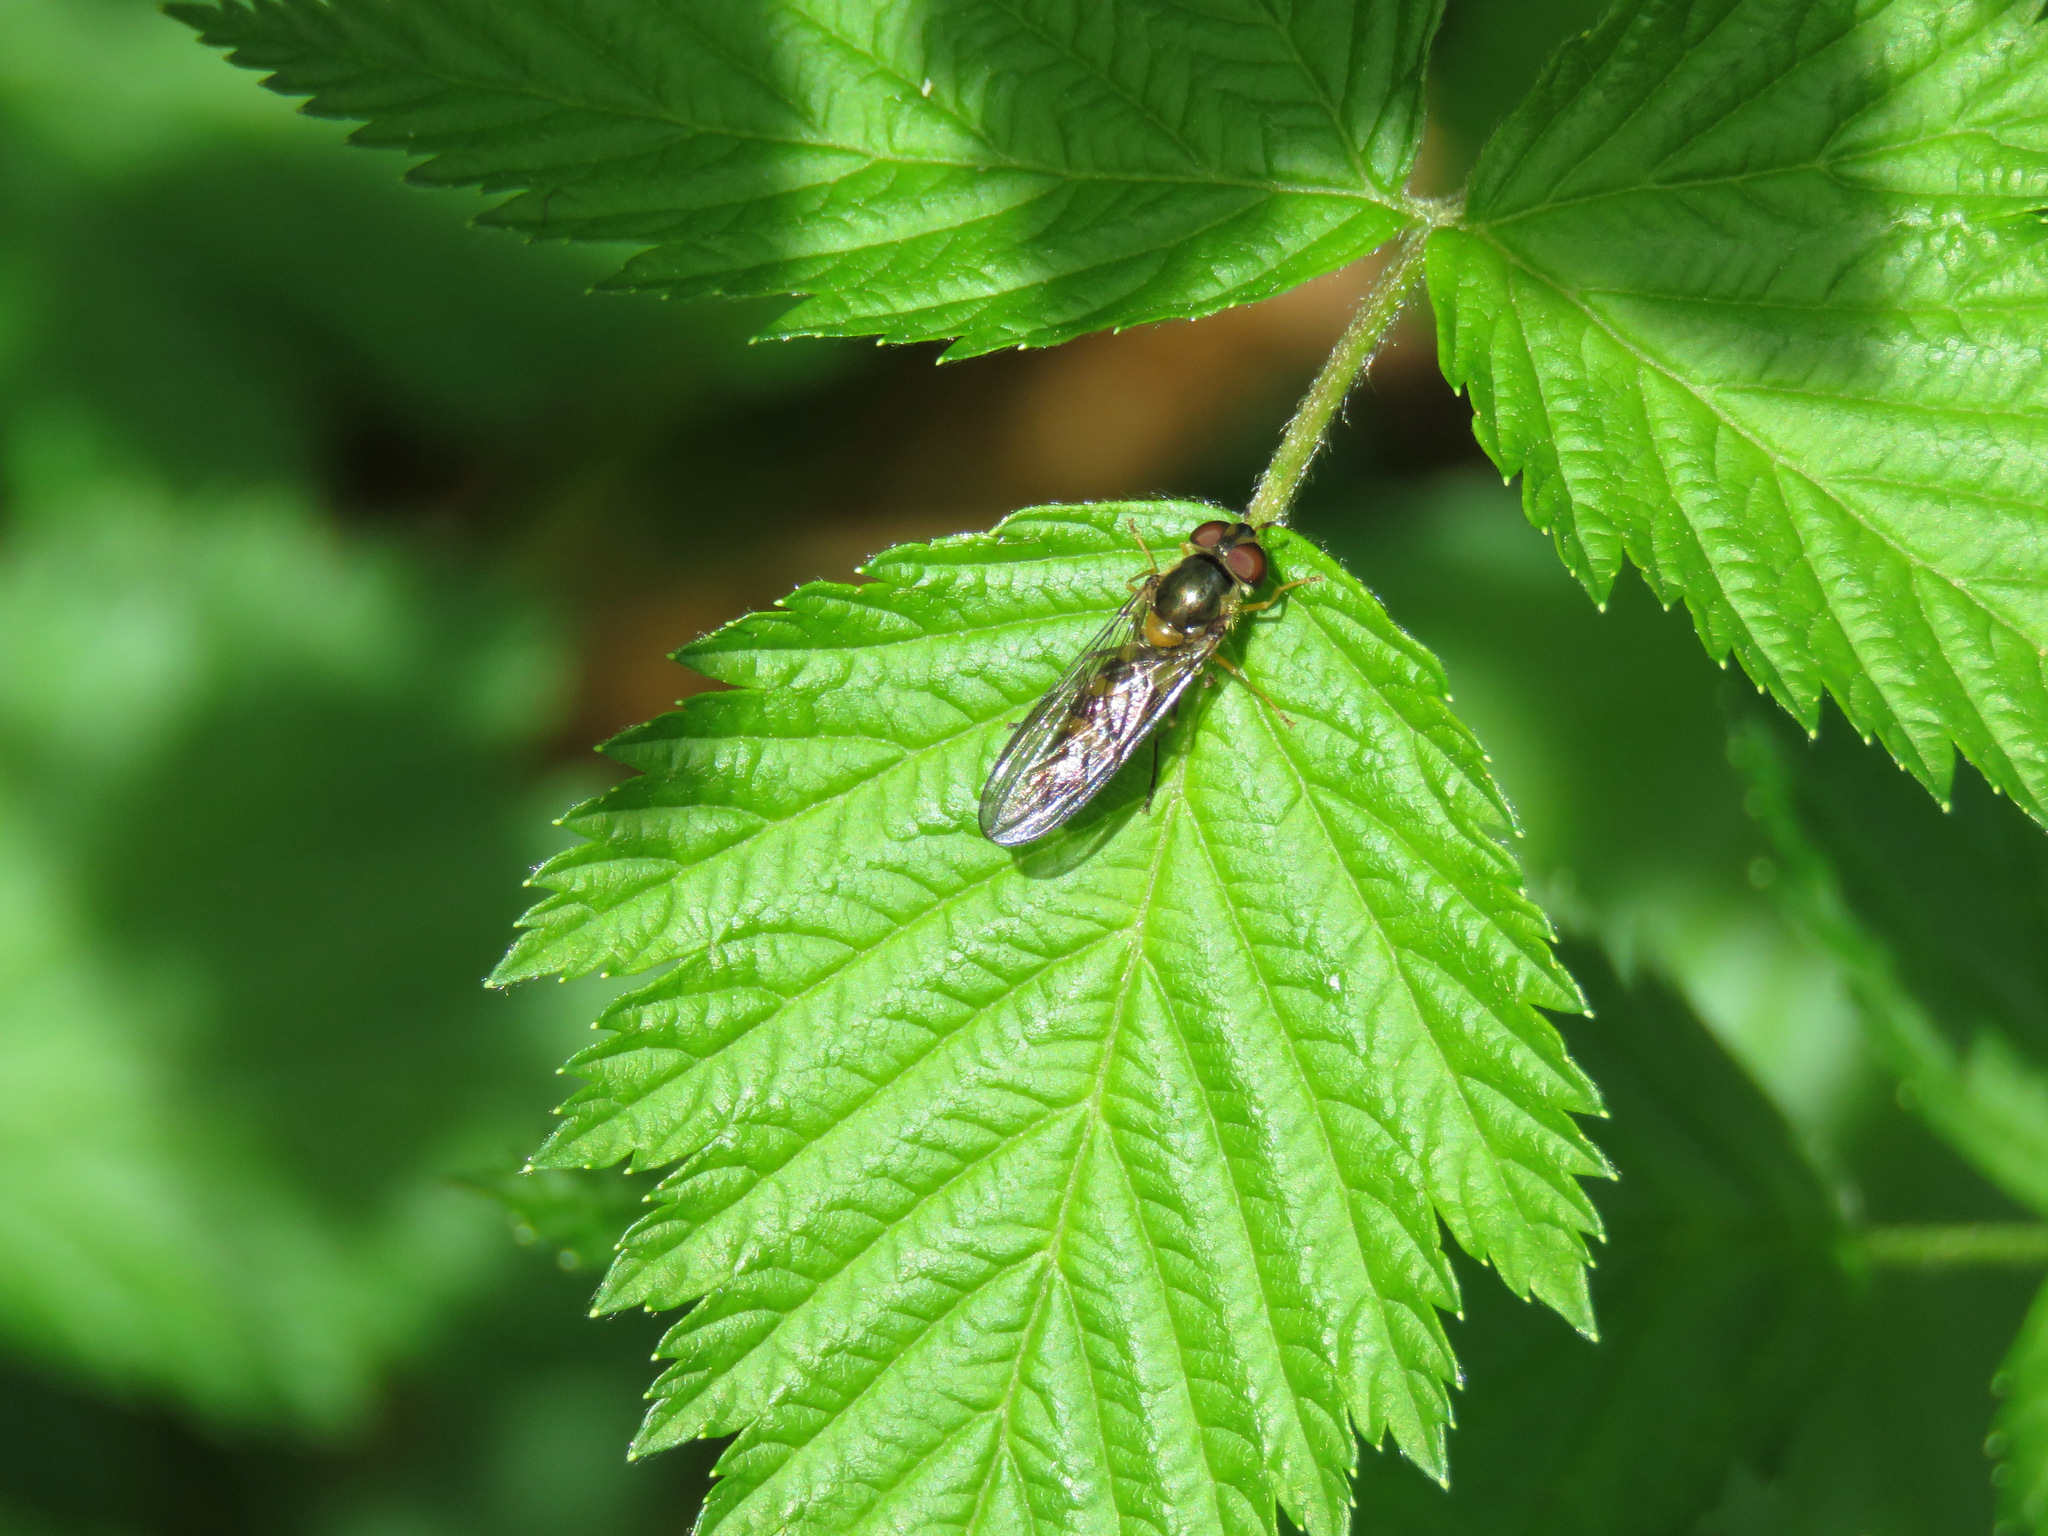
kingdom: Animalia
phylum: Arthropoda
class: Insecta
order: Diptera
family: Syrphidae
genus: Meliscaeva
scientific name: Meliscaeva cinctella
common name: American thintail fly
